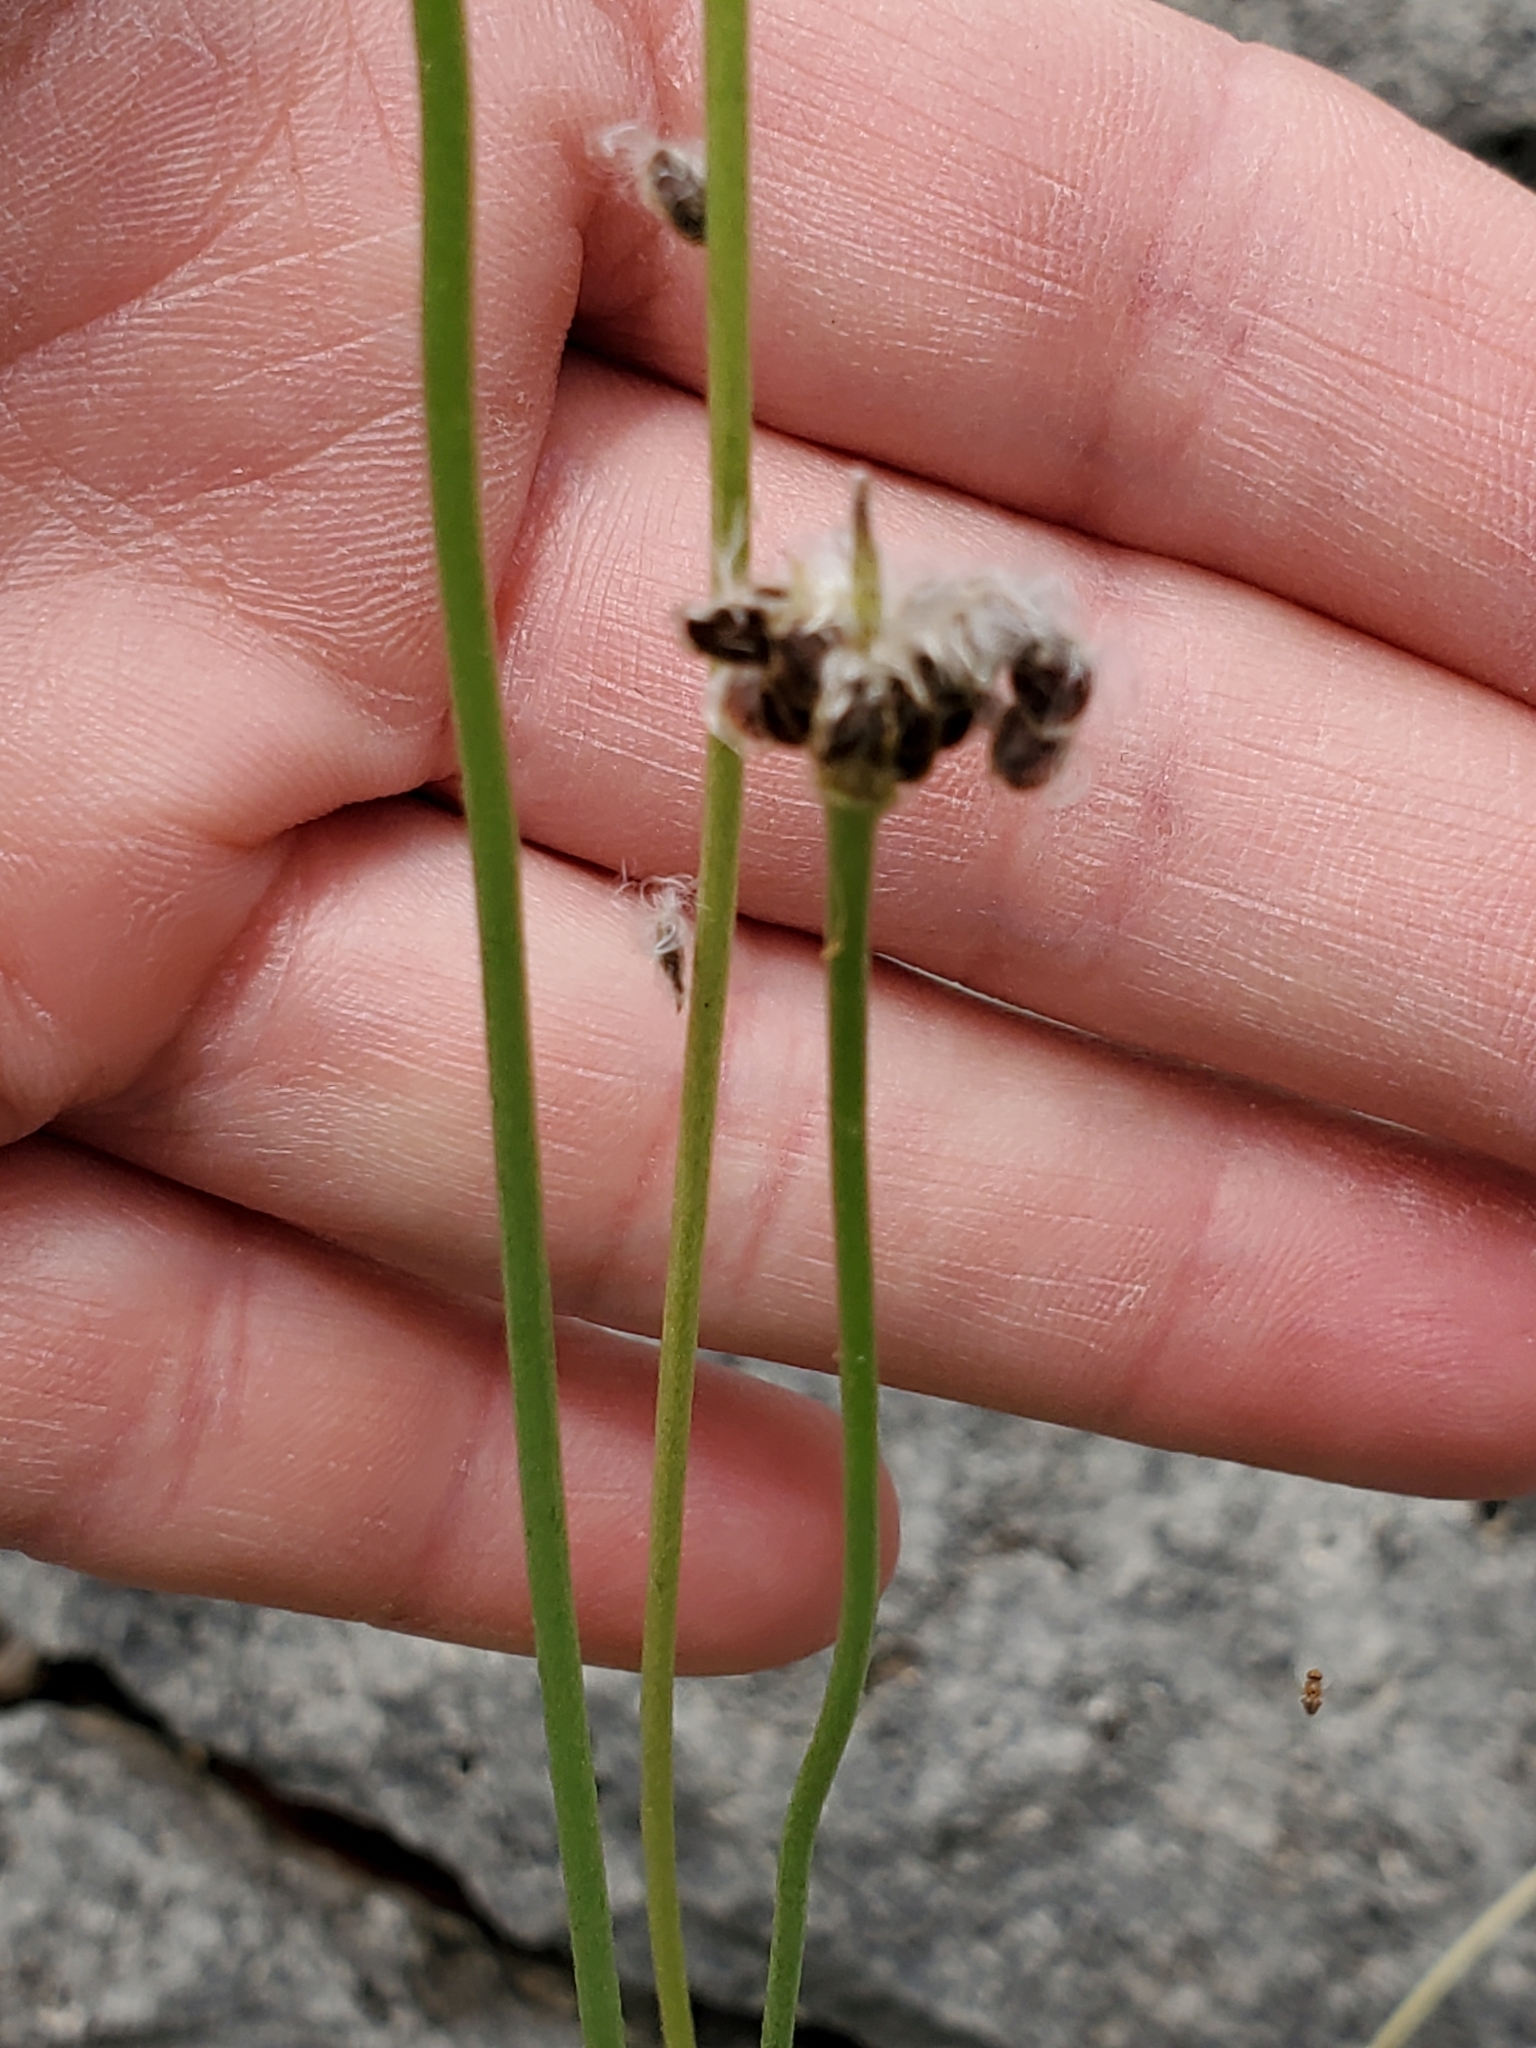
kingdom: Plantae
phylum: Tracheophyta
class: Magnoliopsida
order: Ranunculales
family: Ranunculaceae
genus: Anemone
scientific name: Anemone edwardsiana
